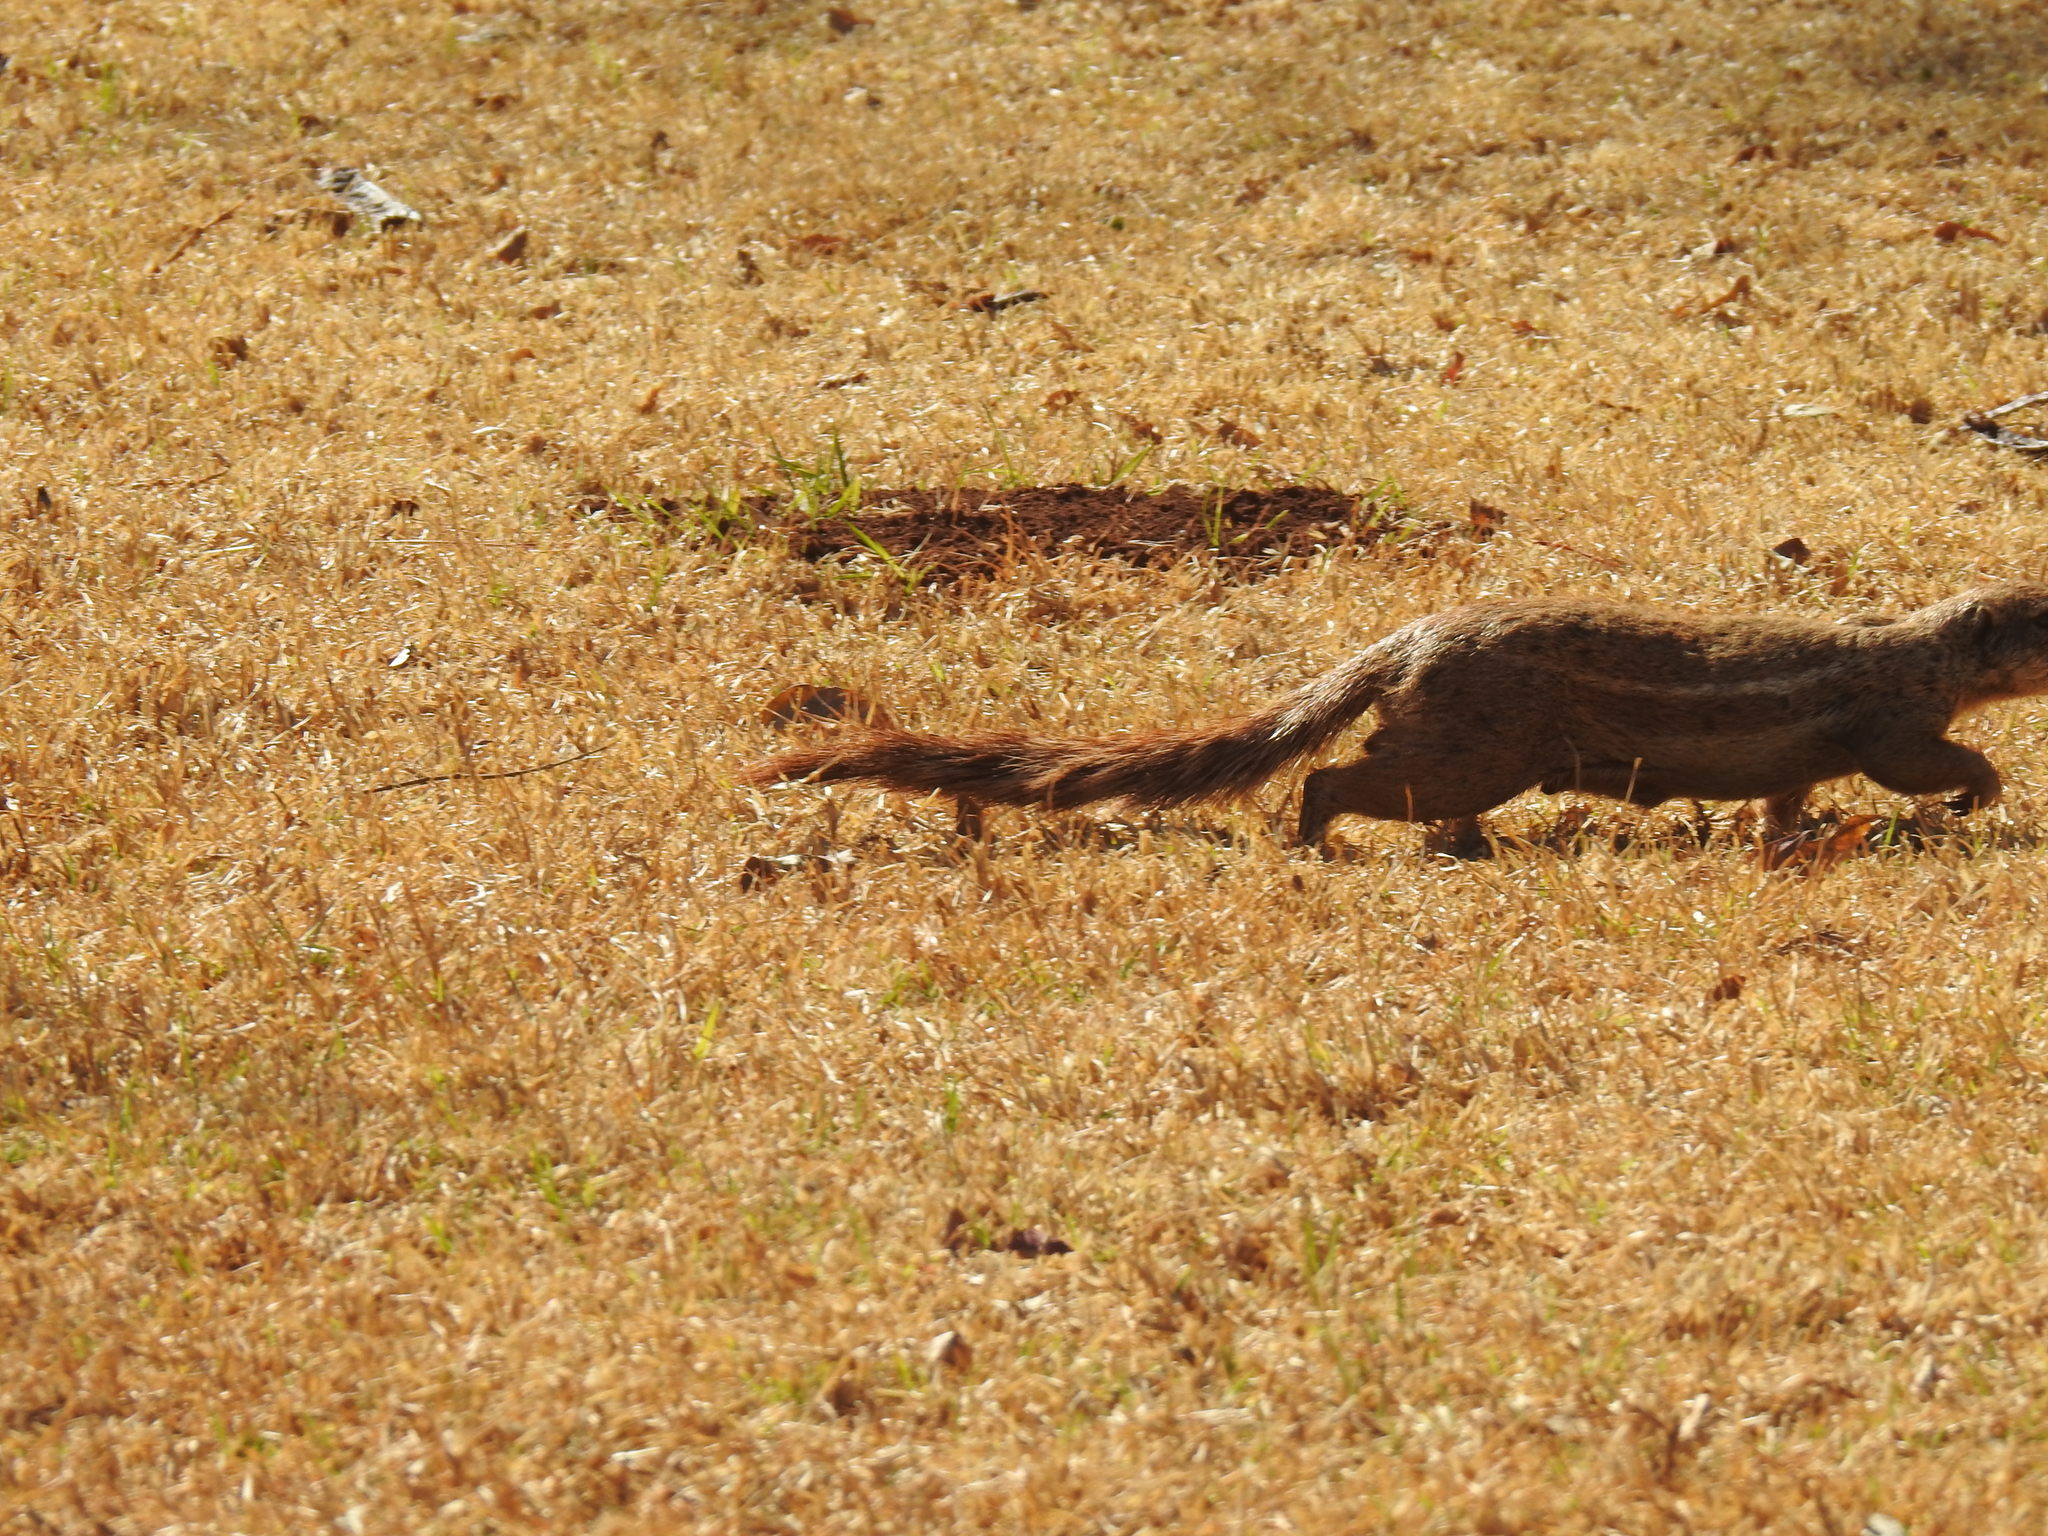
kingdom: Animalia
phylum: Chordata
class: Mammalia
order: Rodentia
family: Sciuridae
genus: Xerus
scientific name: Xerus inauris
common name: South african ground squirrel
